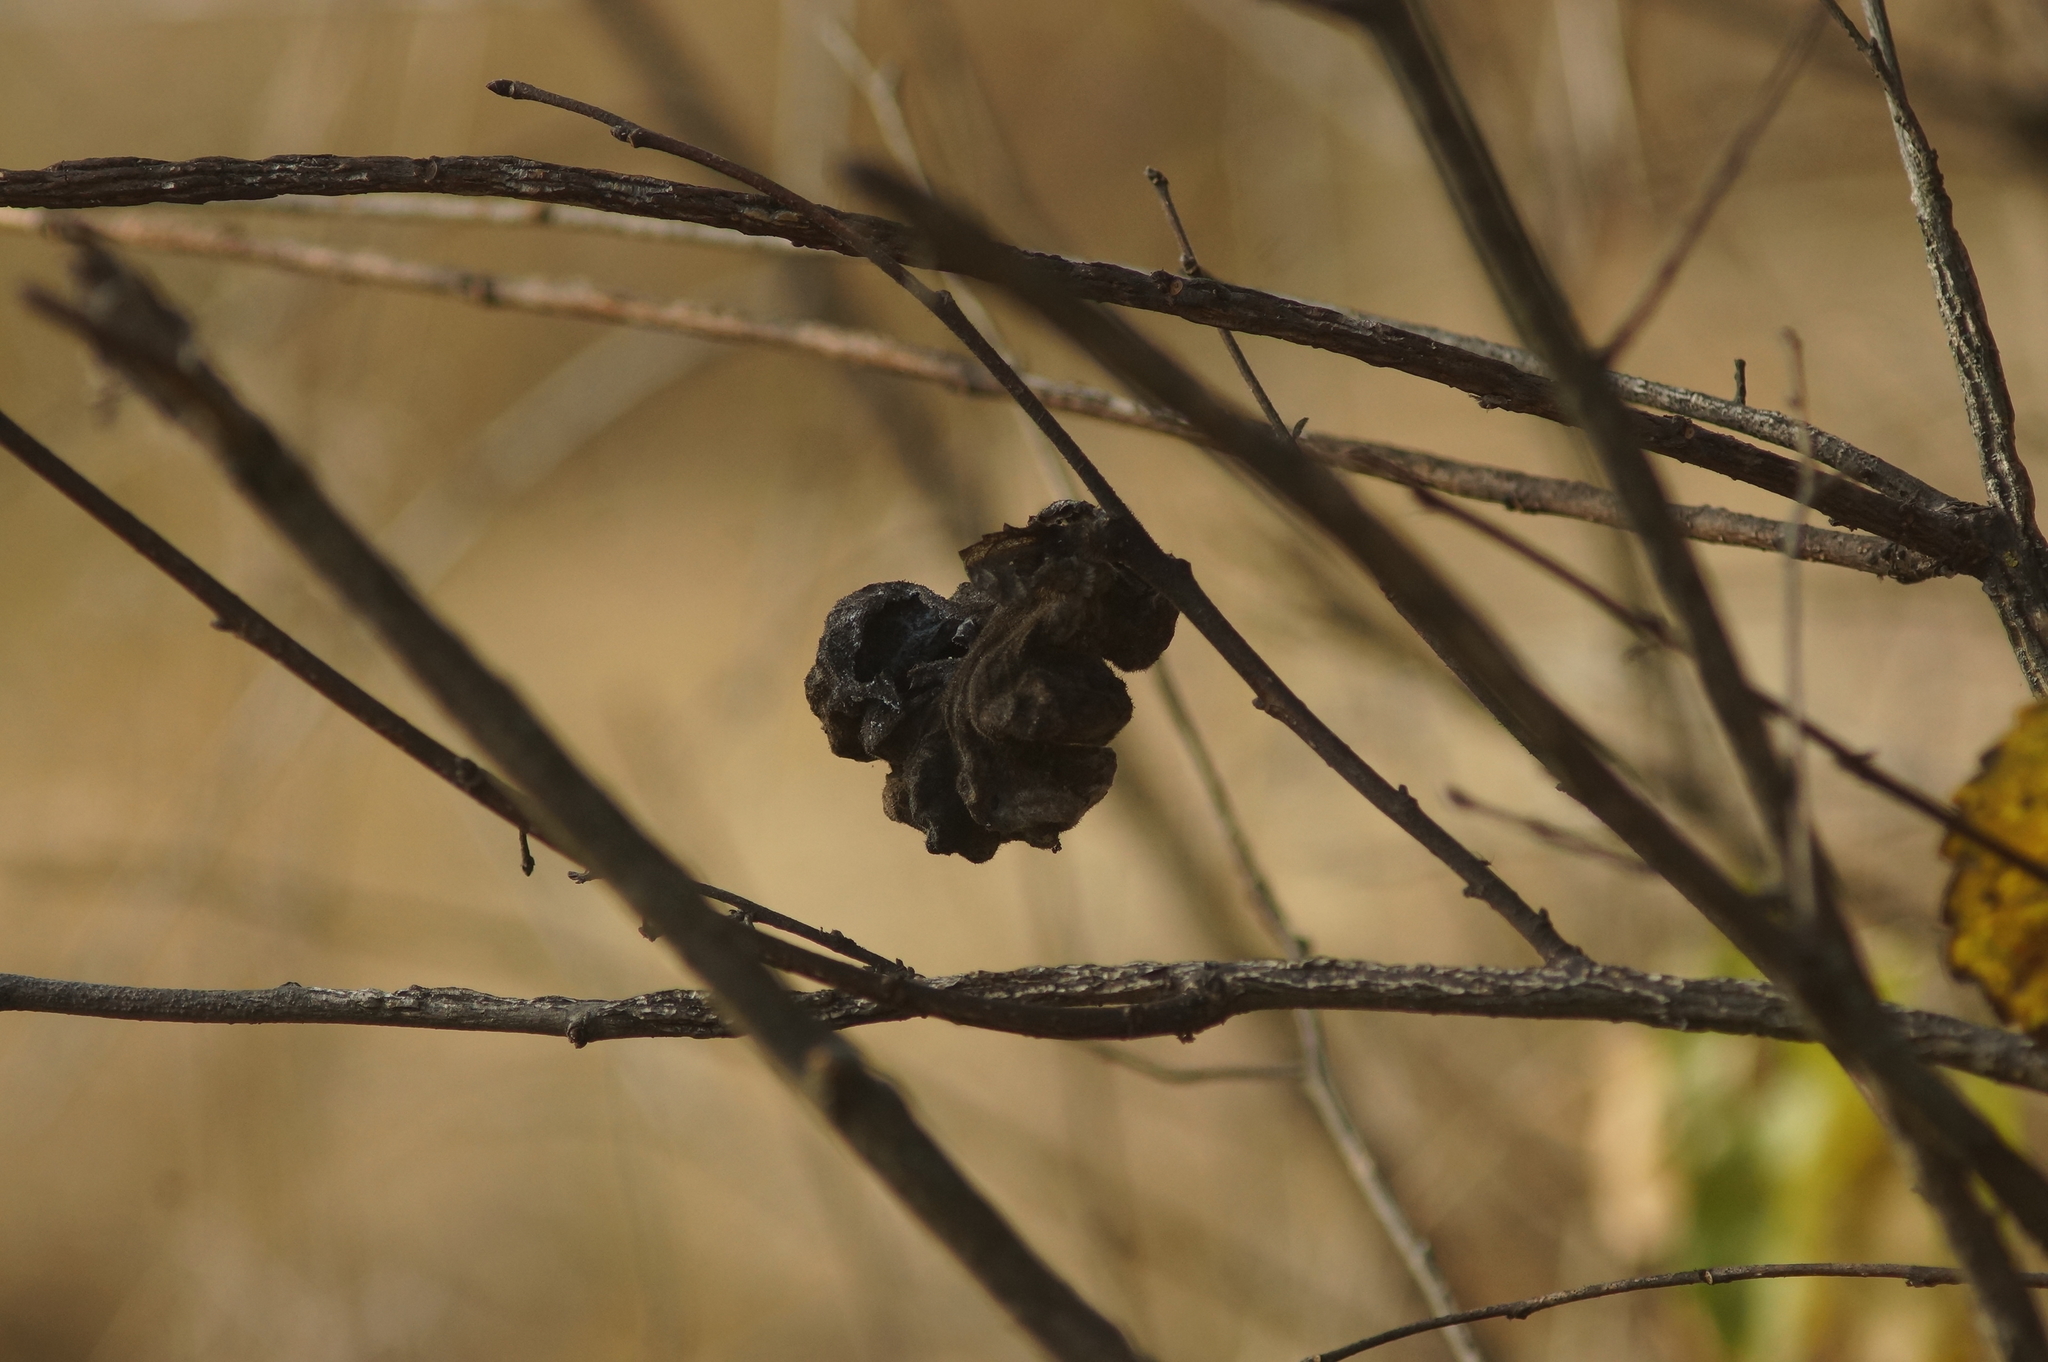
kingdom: Animalia
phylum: Arthropoda
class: Insecta
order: Hemiptera
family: Aphididae
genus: Eriosoma
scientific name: Eriosoma lanuginosum
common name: Aphid
